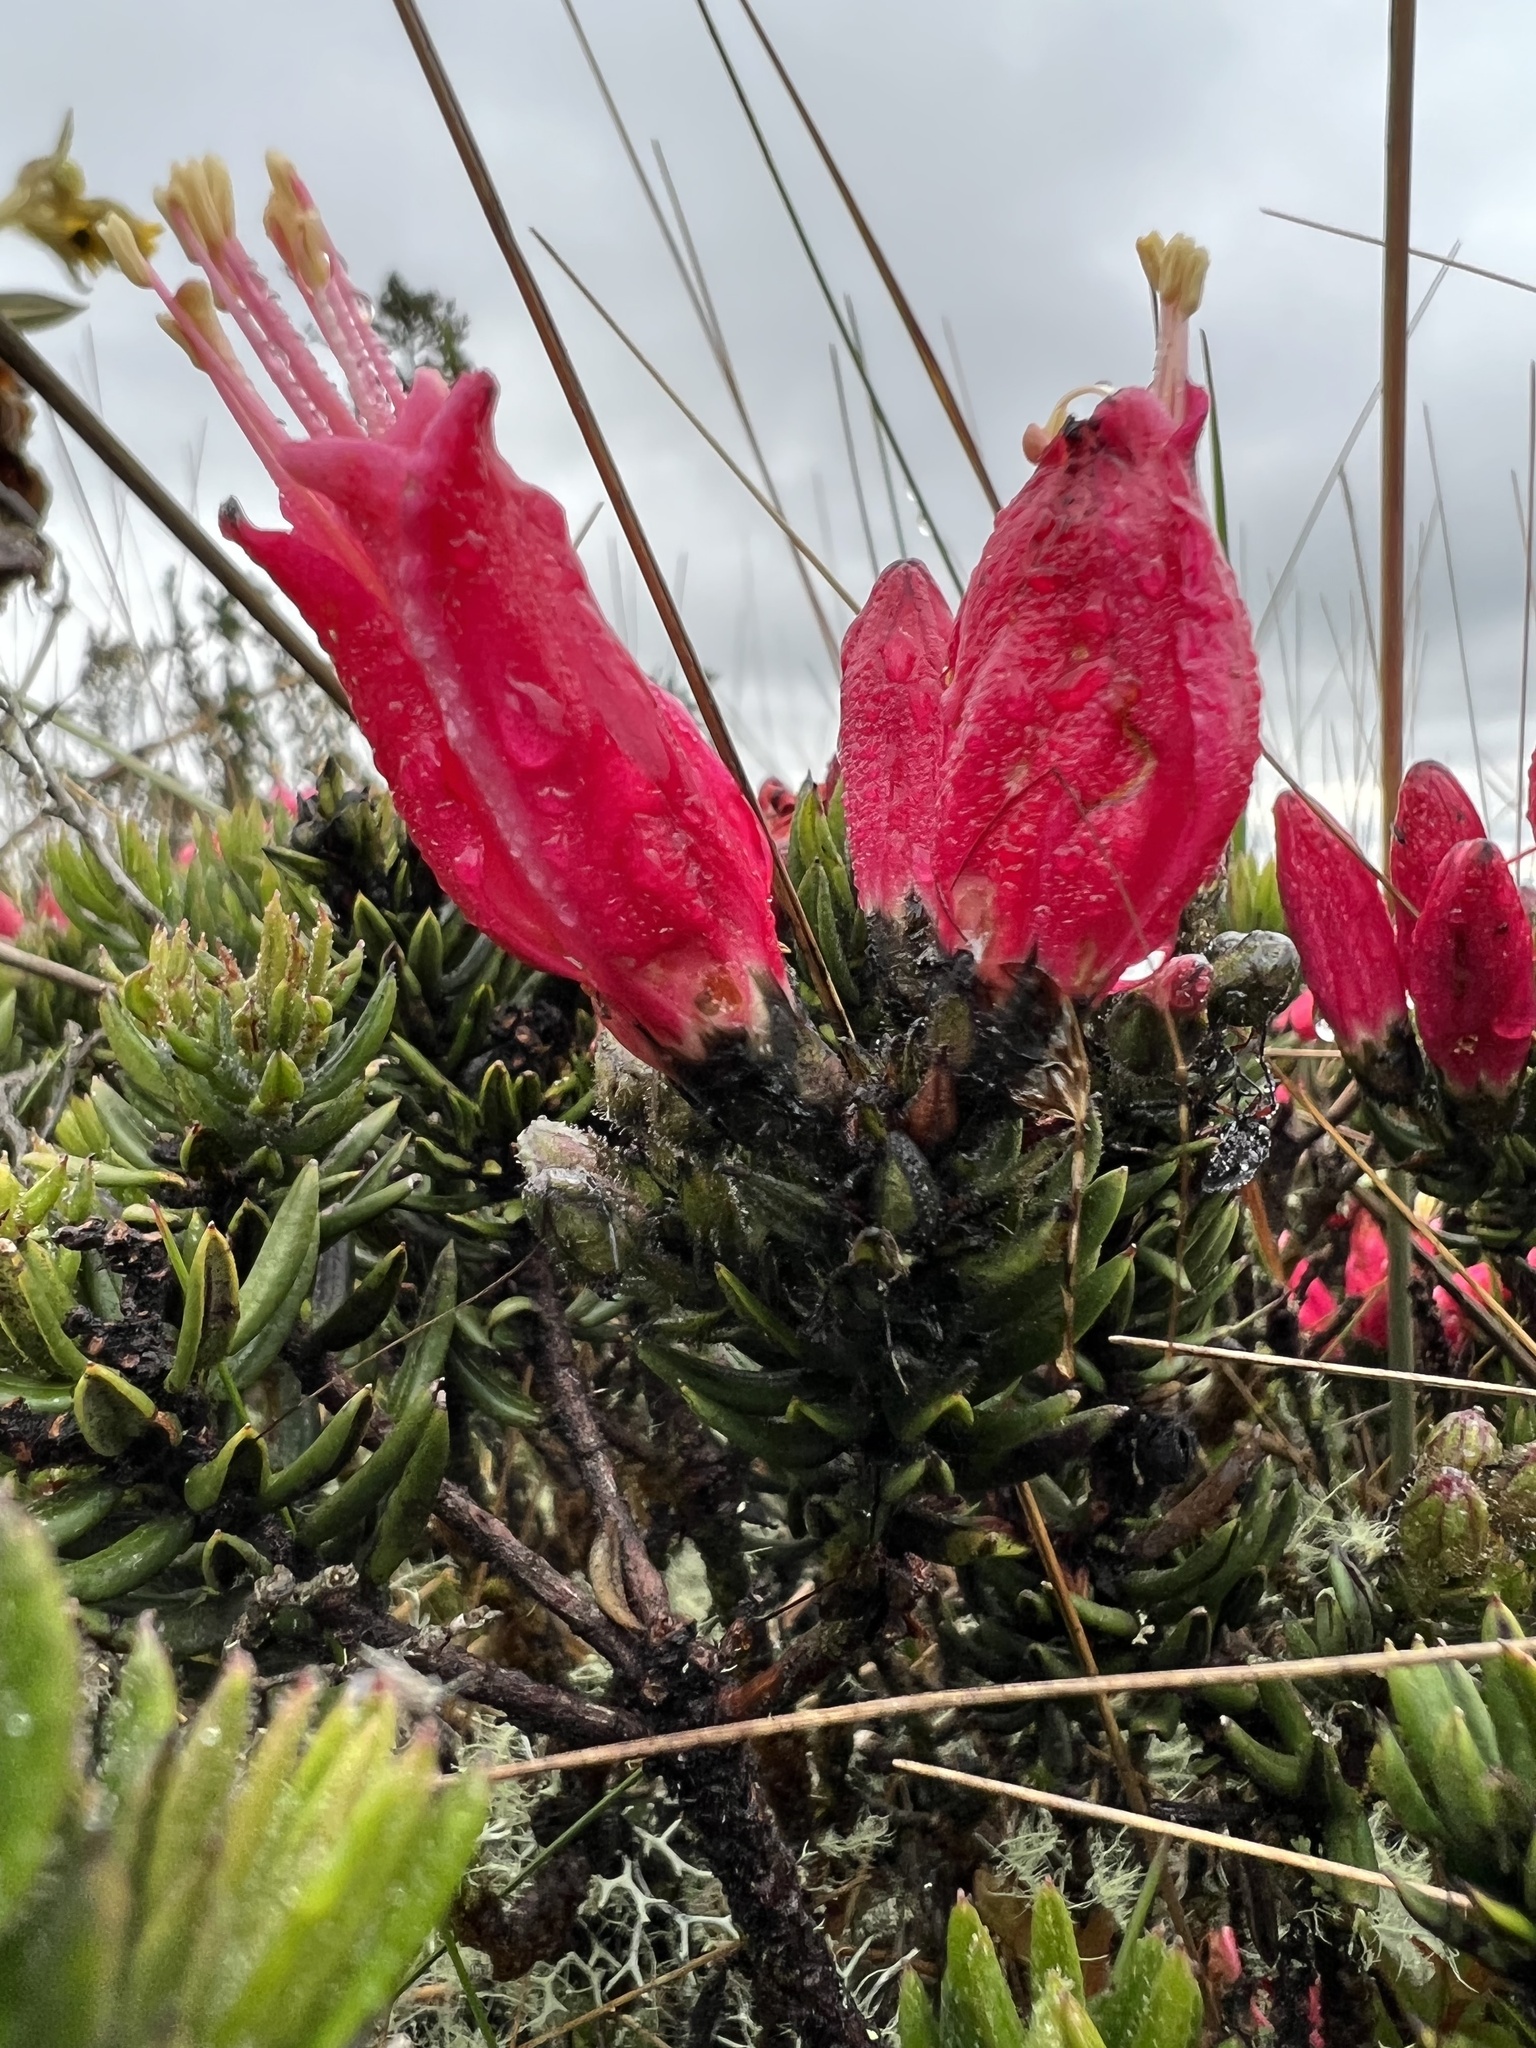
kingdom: Plantae
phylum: Tracheophyta
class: Magnoliopsida
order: Ericales
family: Ericaceae
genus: Bejaria
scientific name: Bejaria resinosa
